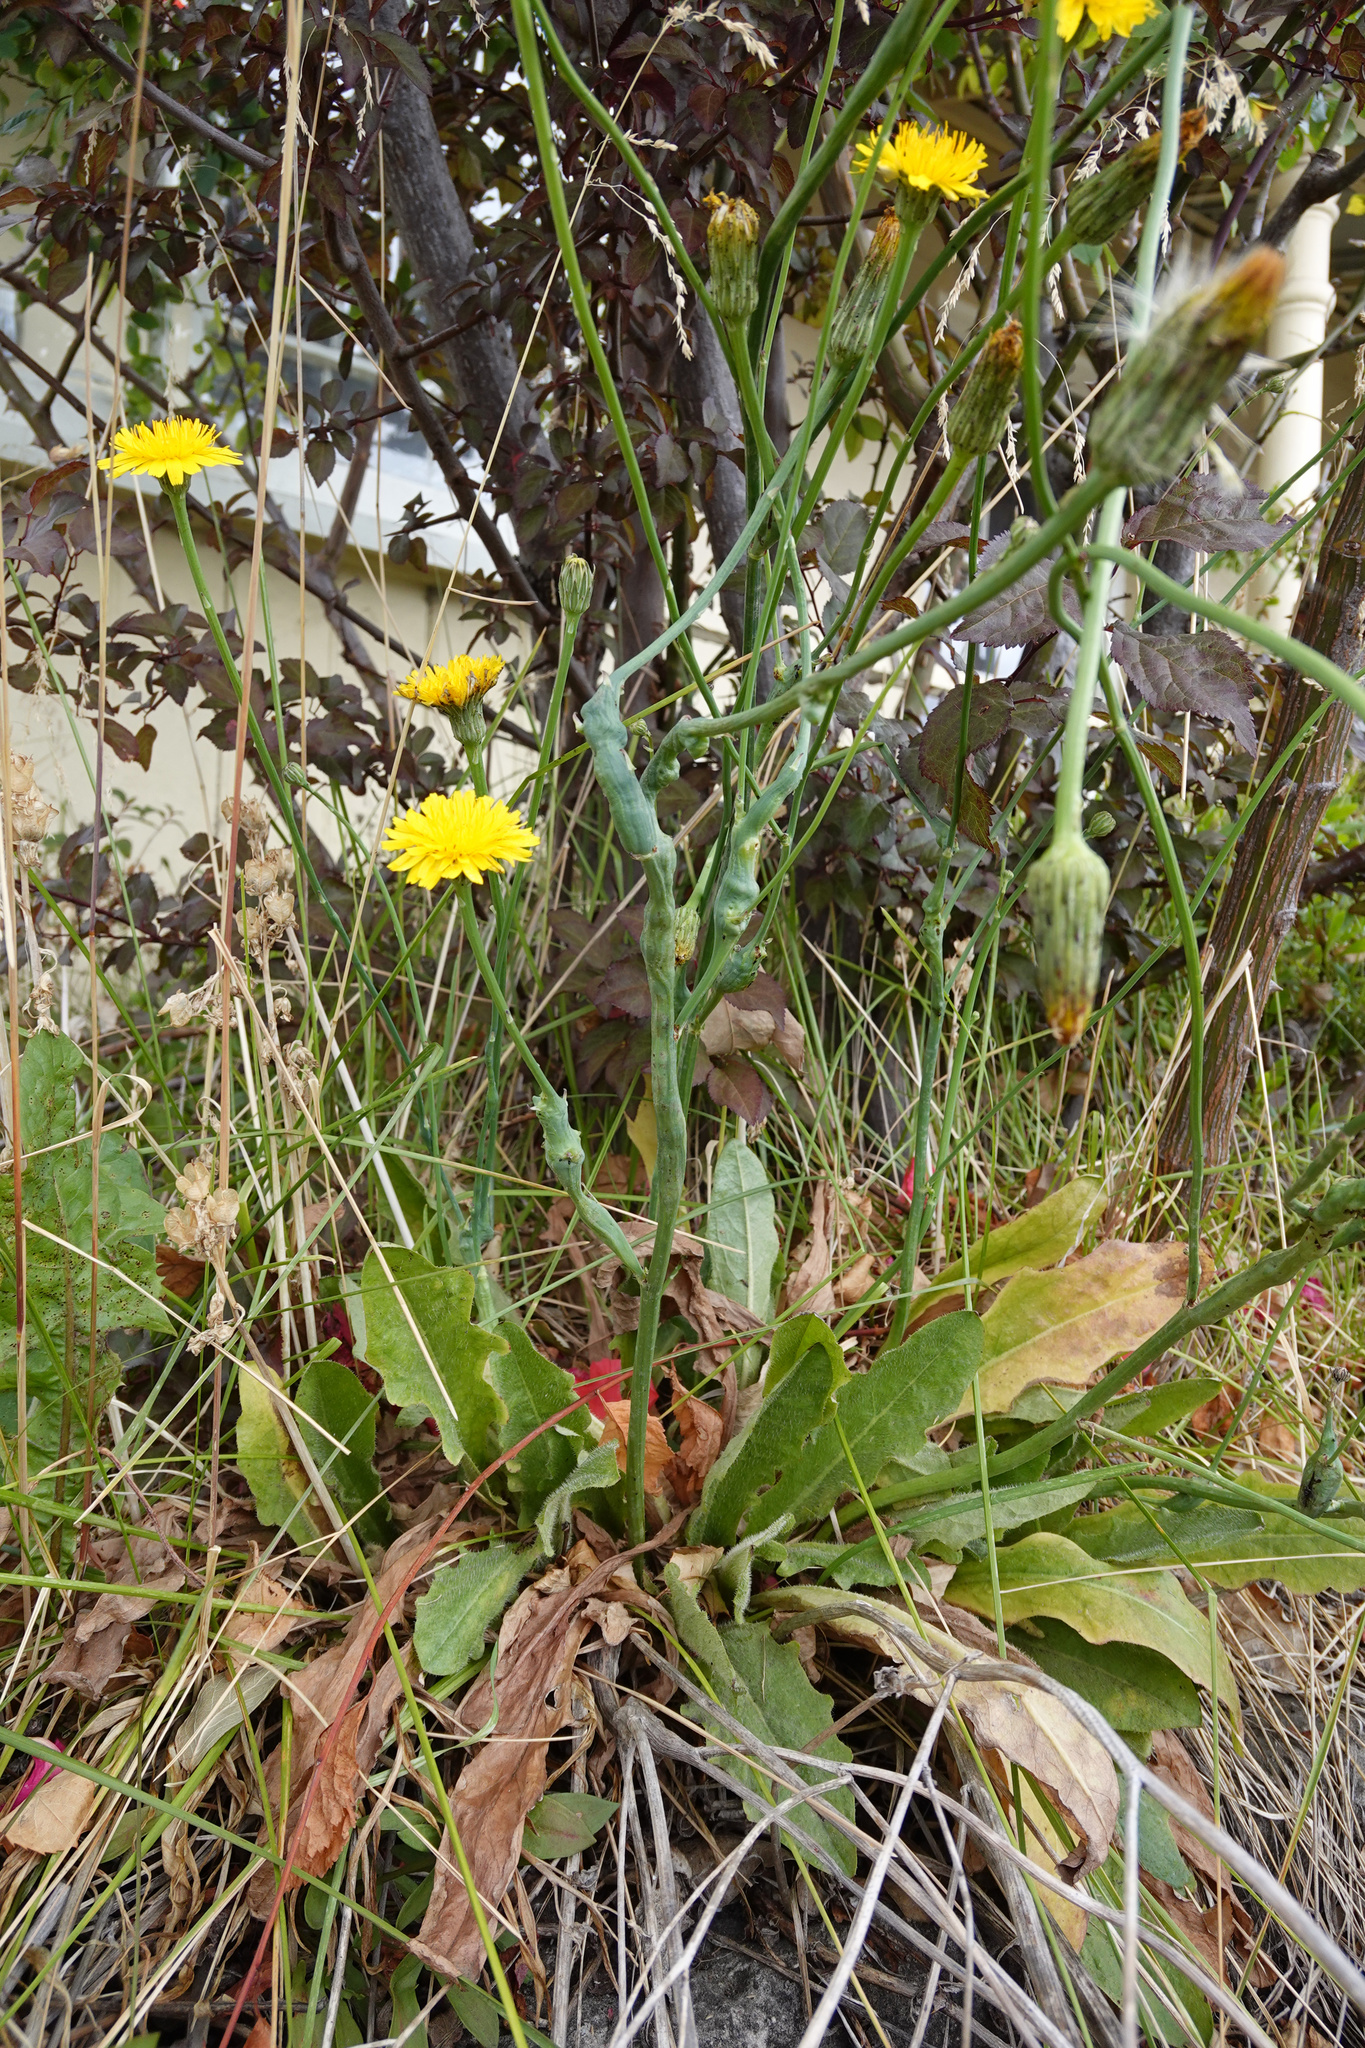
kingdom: Plantae
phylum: Tracheophyta
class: Magnoliopsida
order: Asterales
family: Asteraceae
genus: Hypochaeris
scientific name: Hypochaeris radicata
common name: Flatweed
